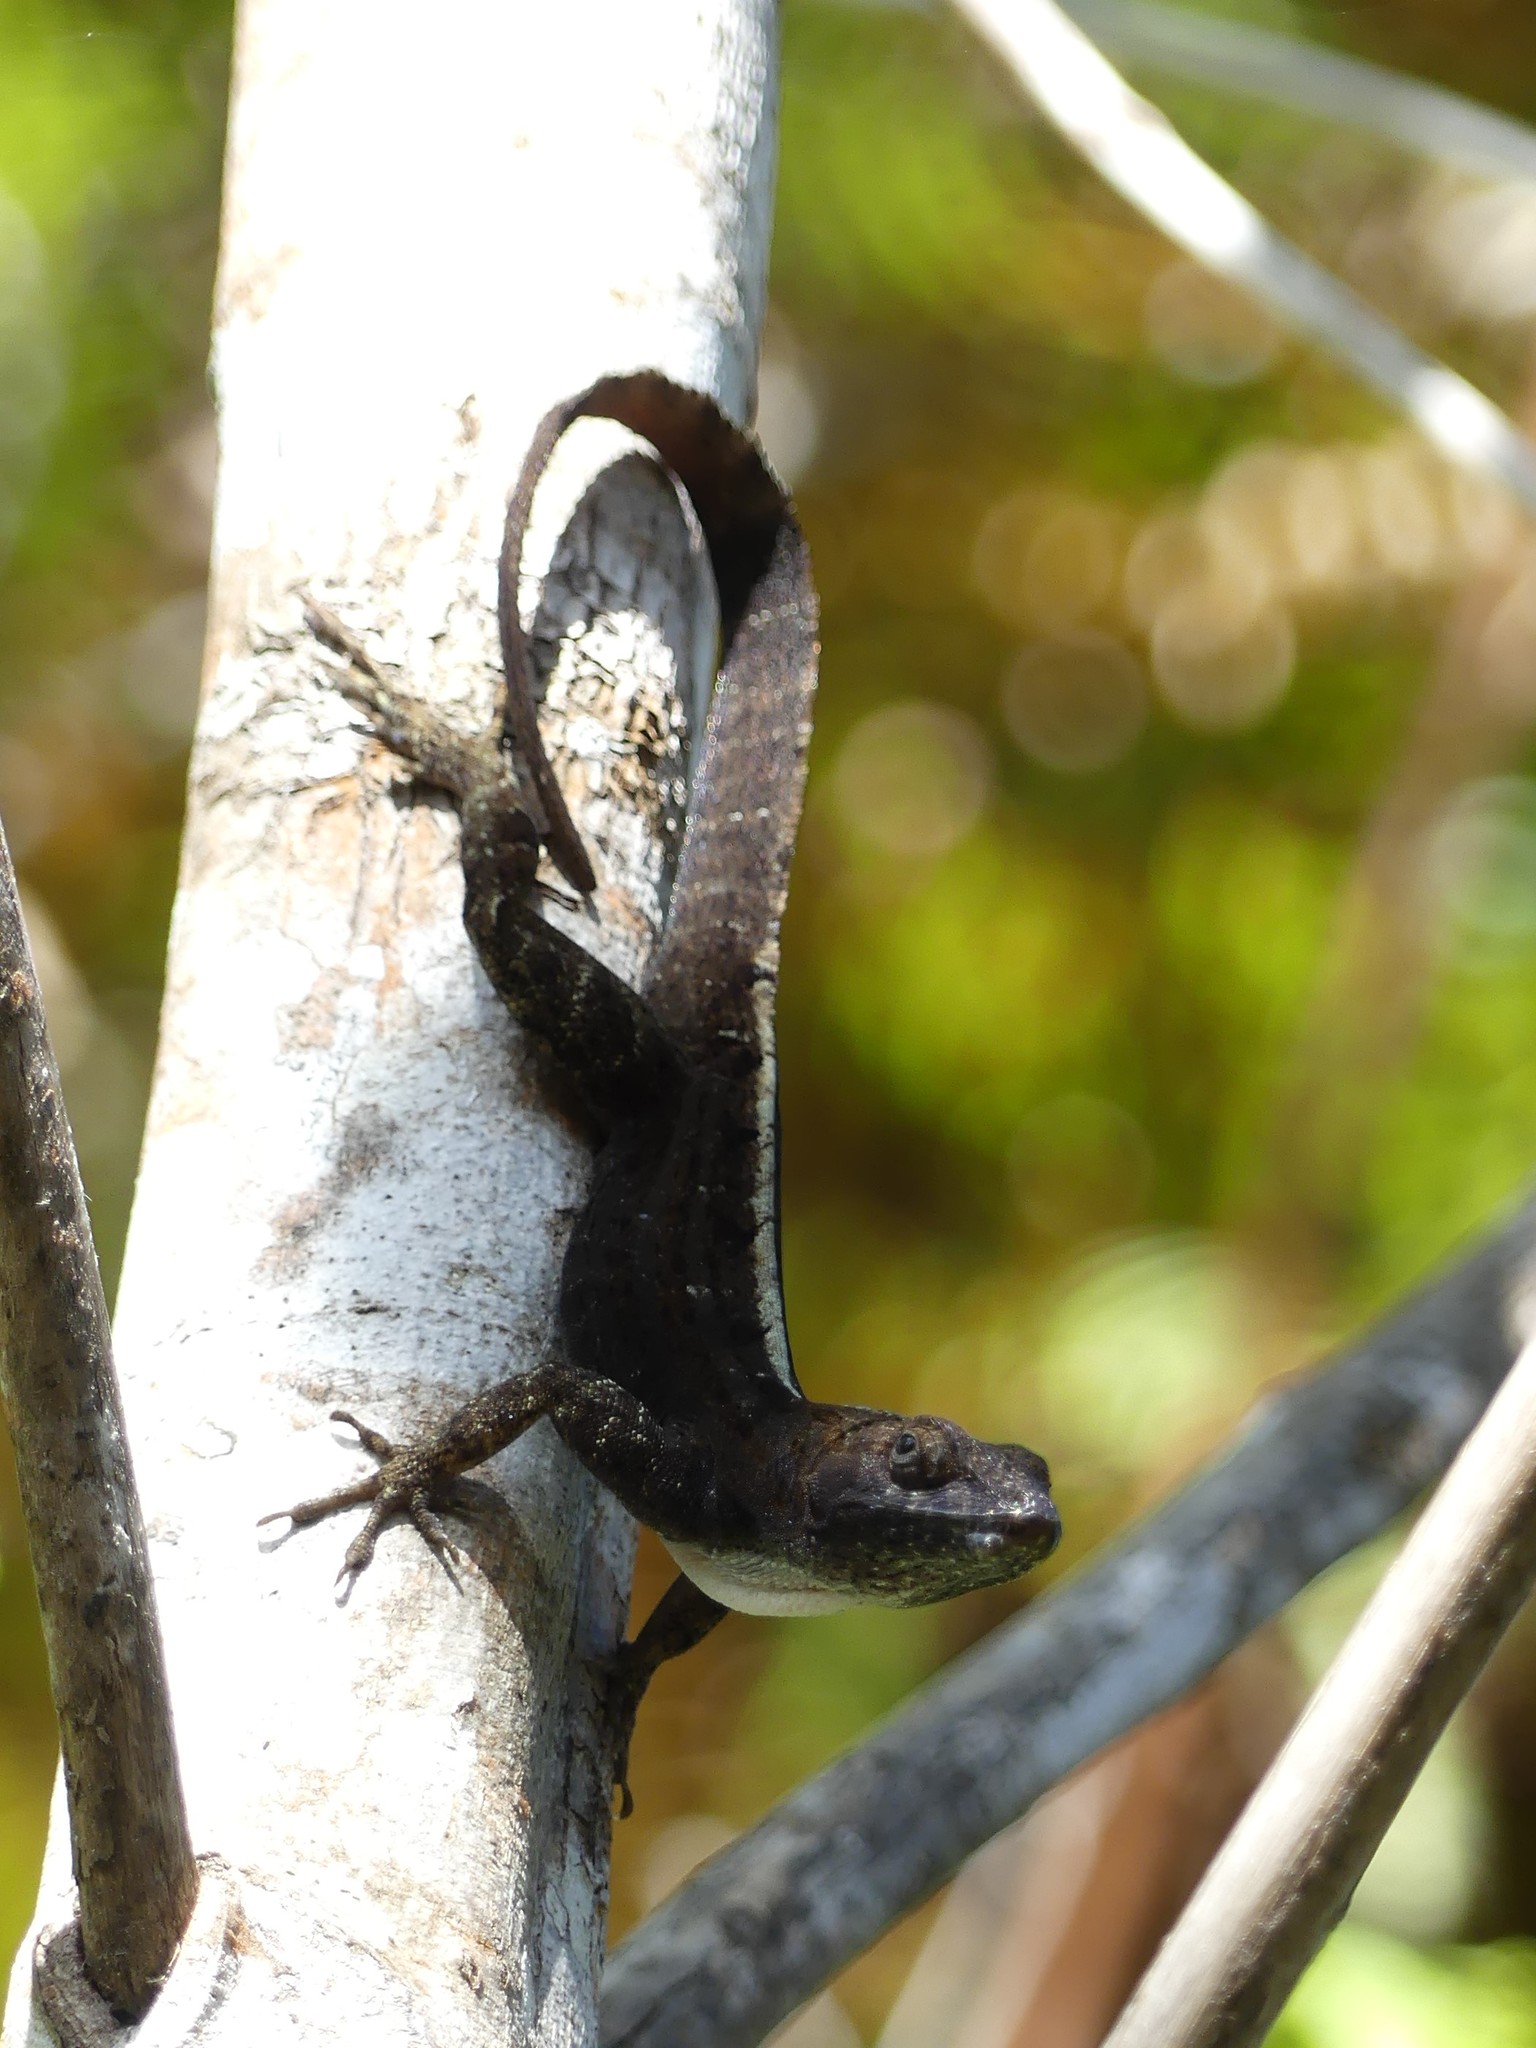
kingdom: Animalia
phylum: Chordata
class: Squamata
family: Dactyloidae
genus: Anolis
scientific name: Anolis homolechis
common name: Habana anole
